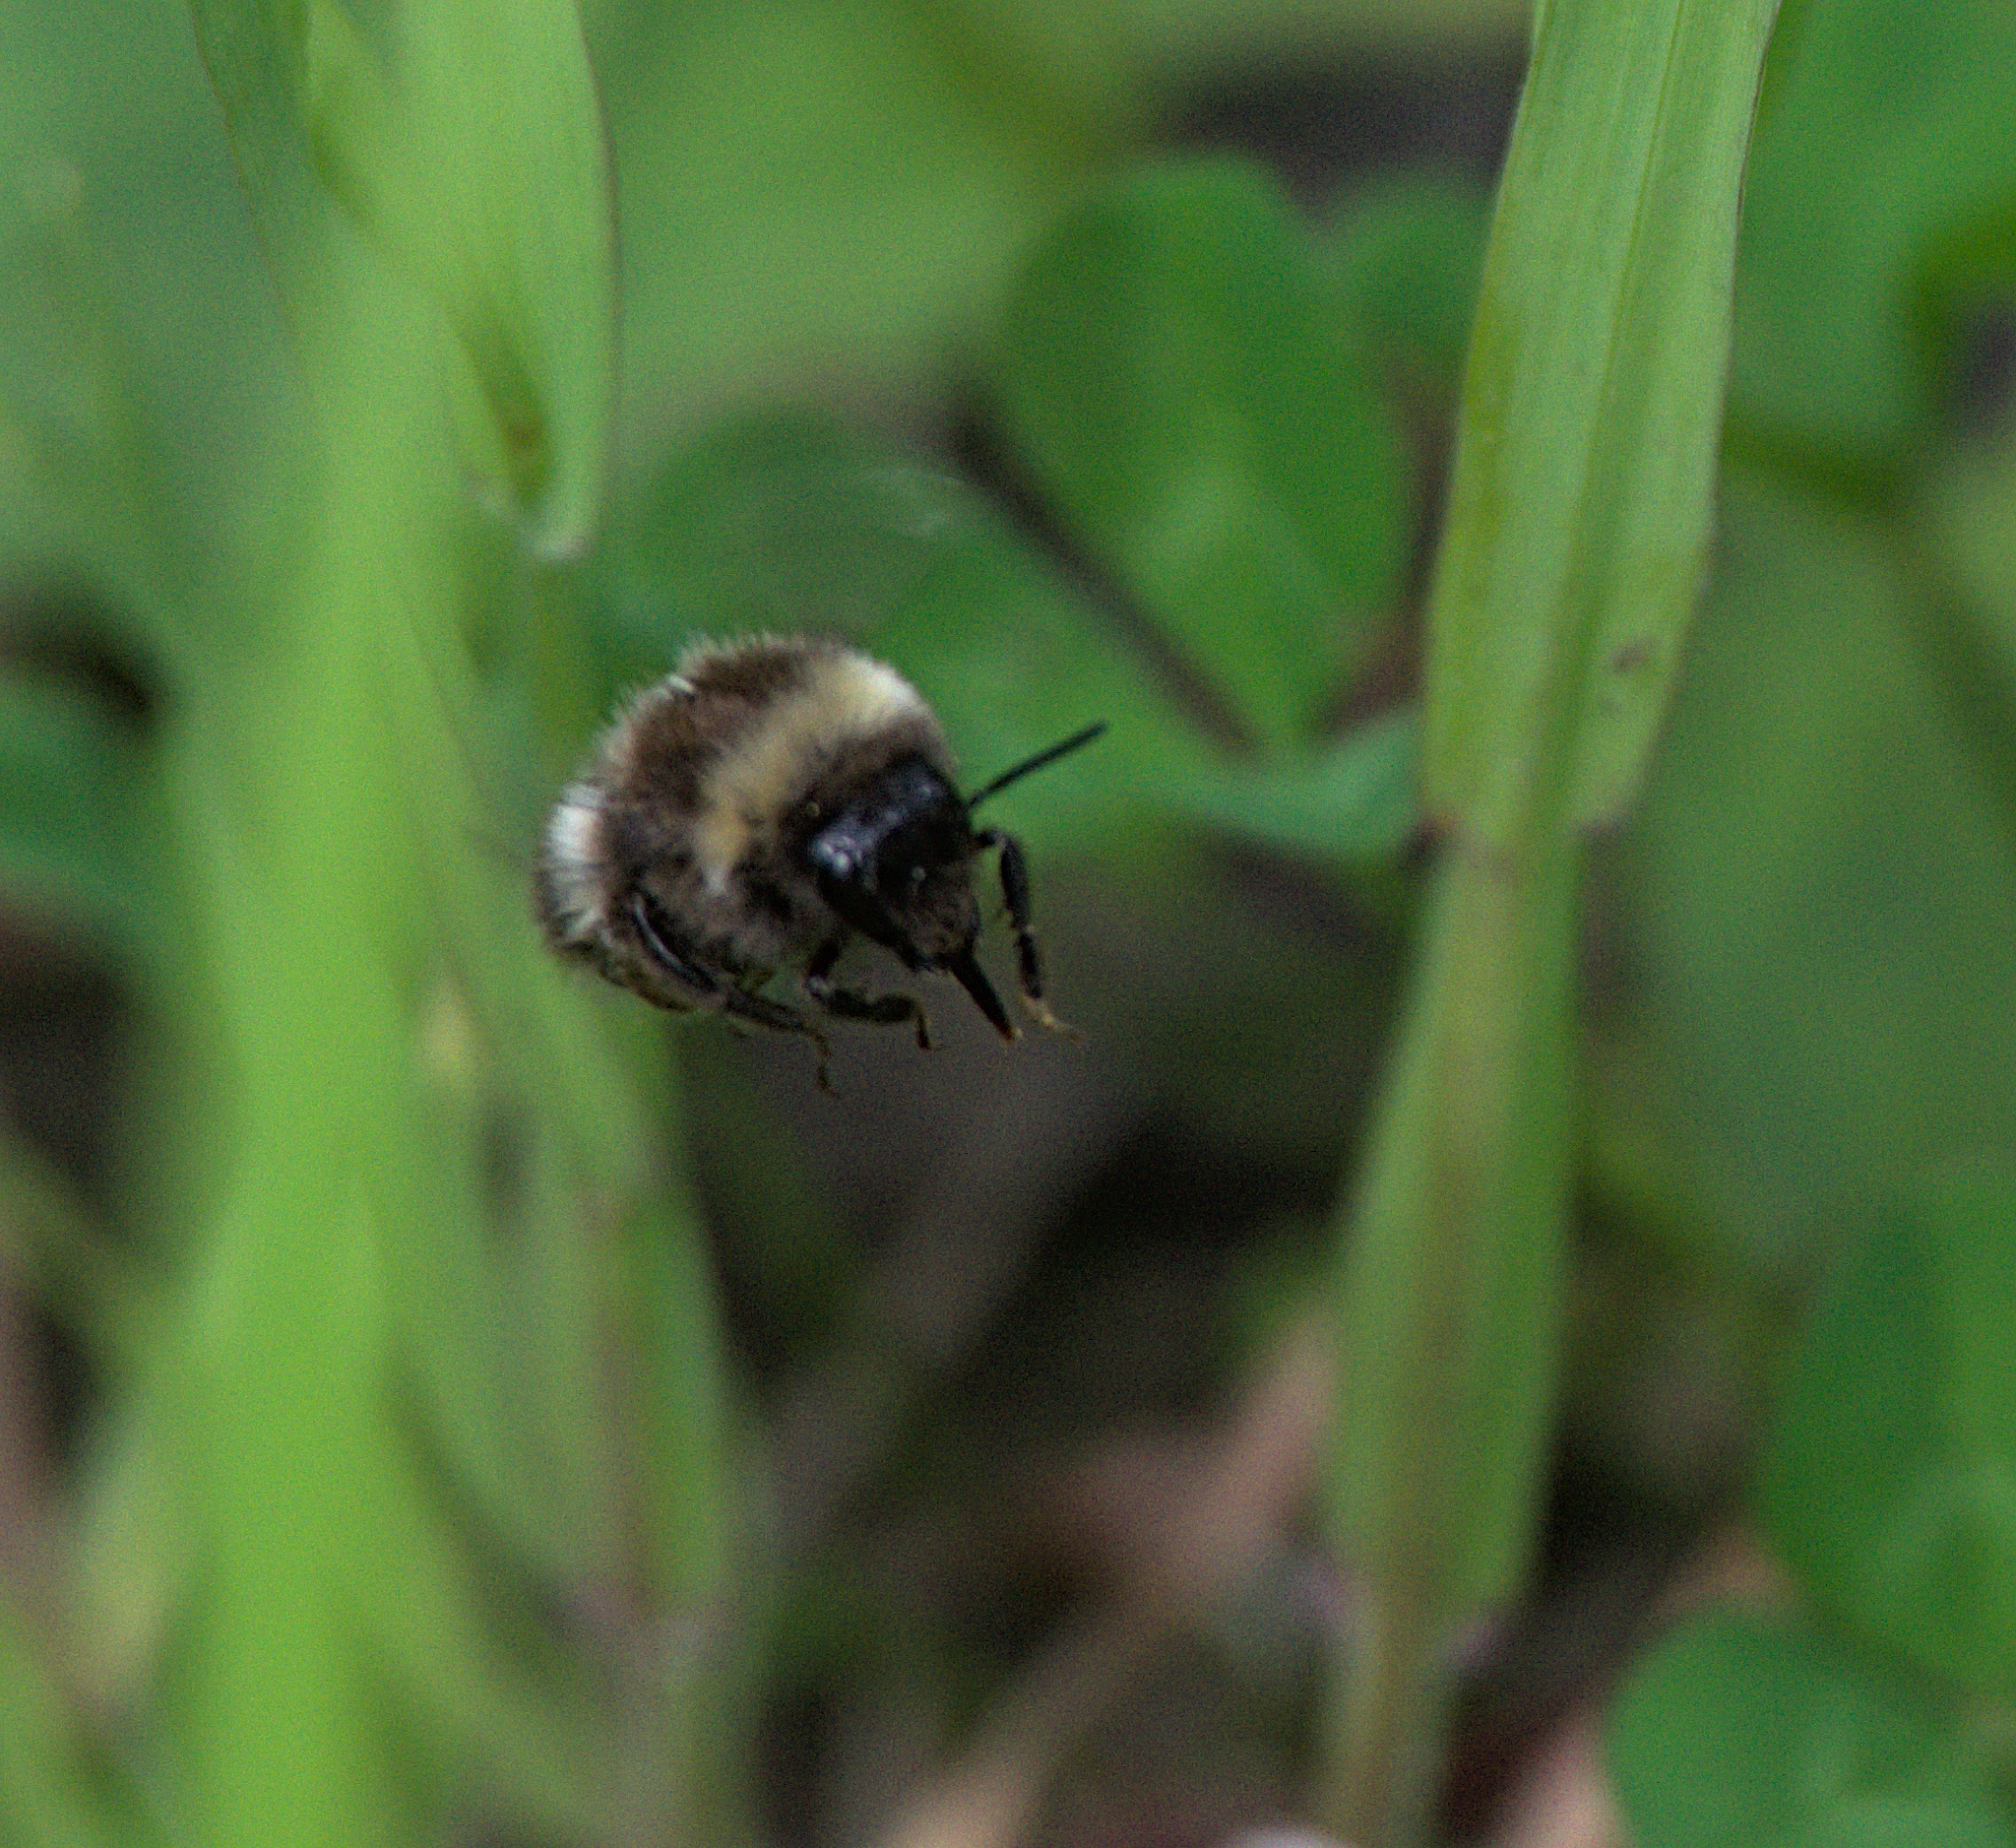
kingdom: Animalia
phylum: Arthropoda
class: Insecta
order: Hymenoptera
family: Apidae
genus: Bombus
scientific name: Bombus
